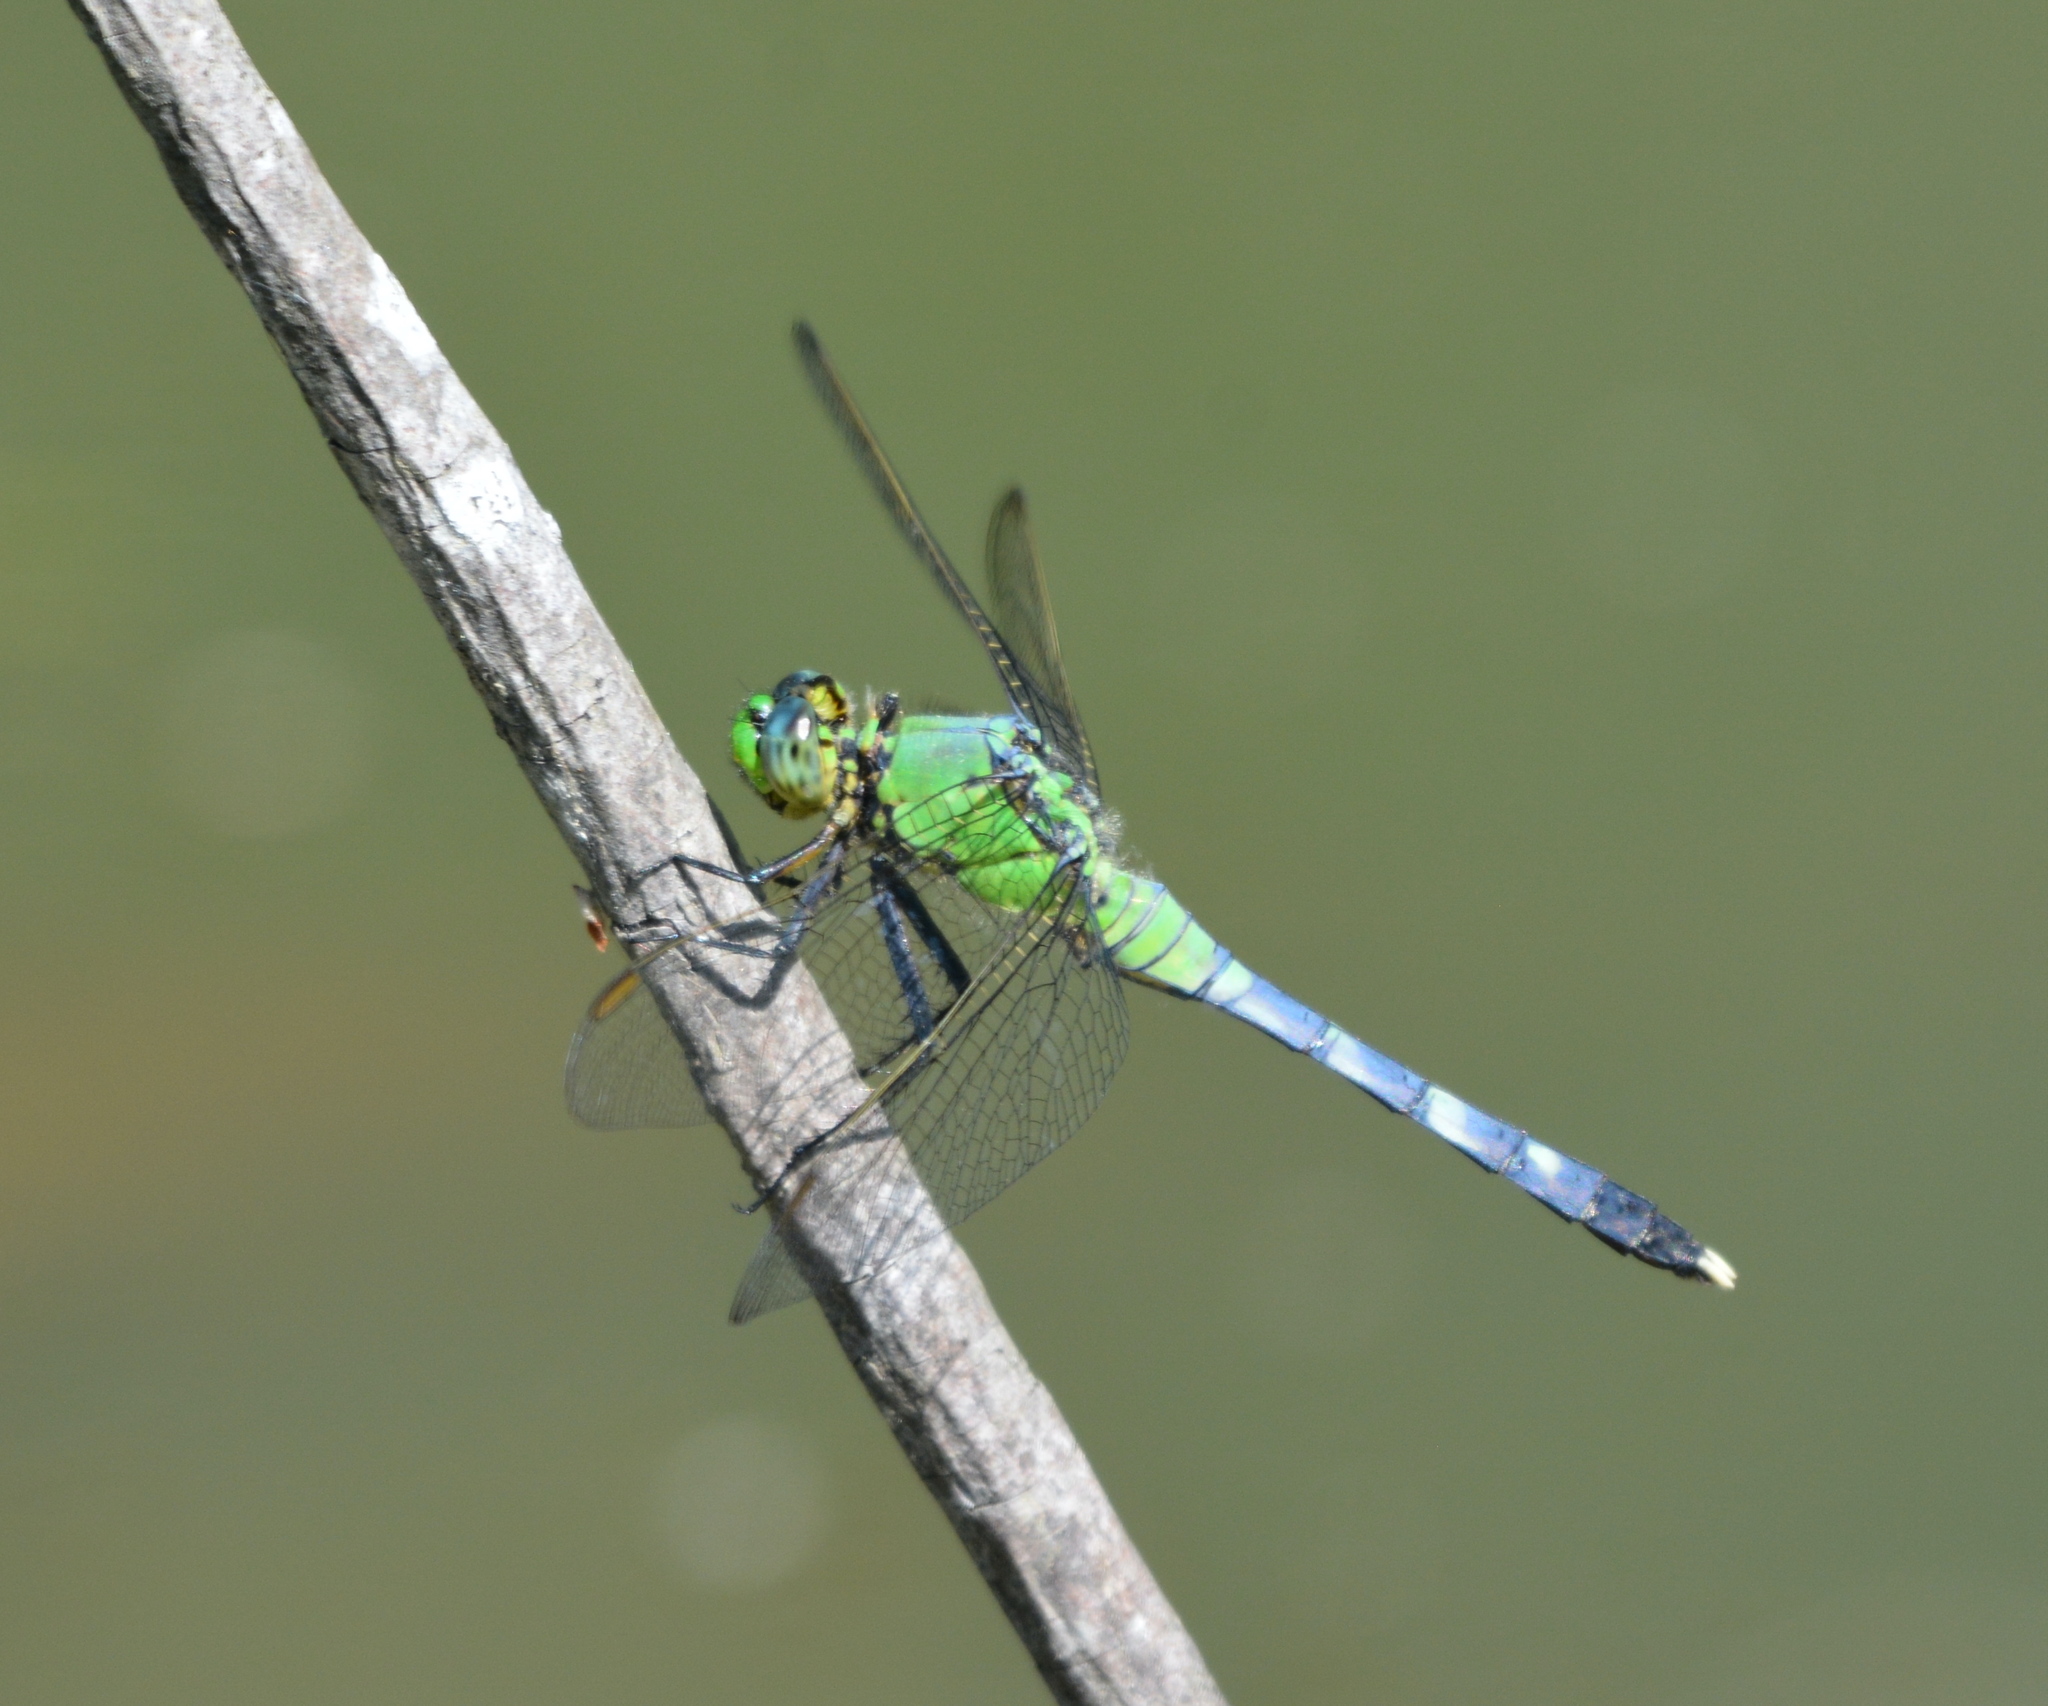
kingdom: Animalia
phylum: Arthropoda
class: Insecta
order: Odonata
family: Libellulidae
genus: Erythemis
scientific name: Erythemis simplicicollis
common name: Eastern pondhawk
